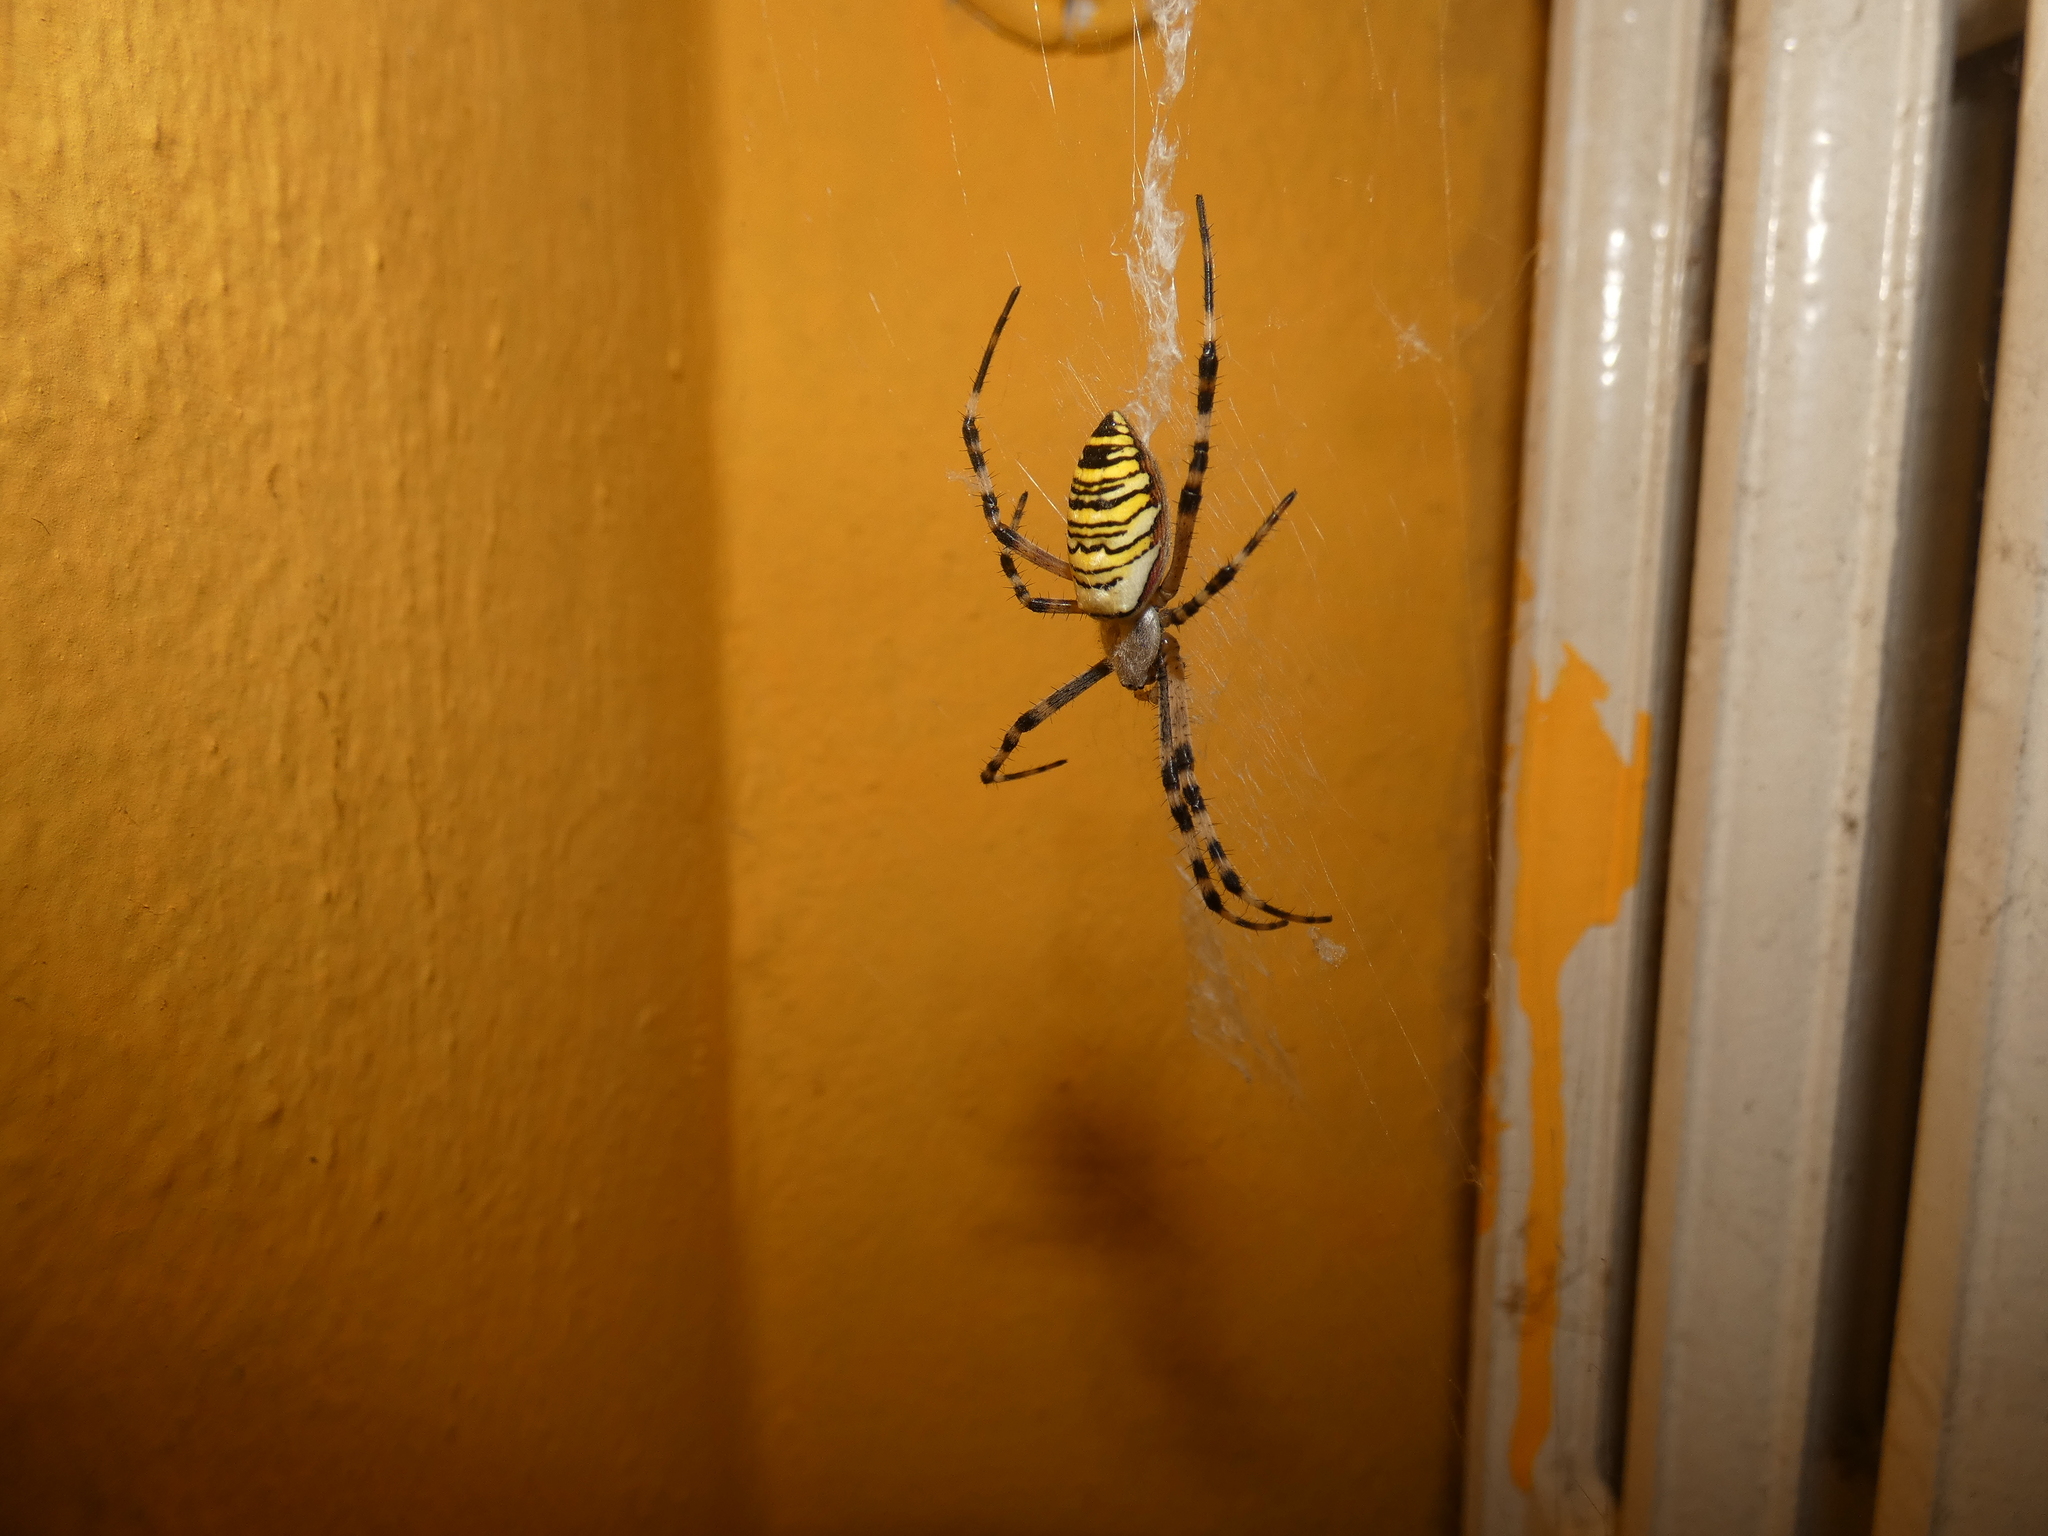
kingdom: Animalia
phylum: Arthropoda
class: Arachnida
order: Araneae
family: Araneidae
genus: Argiope
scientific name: Argiope bruennichi
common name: Wasp spider
